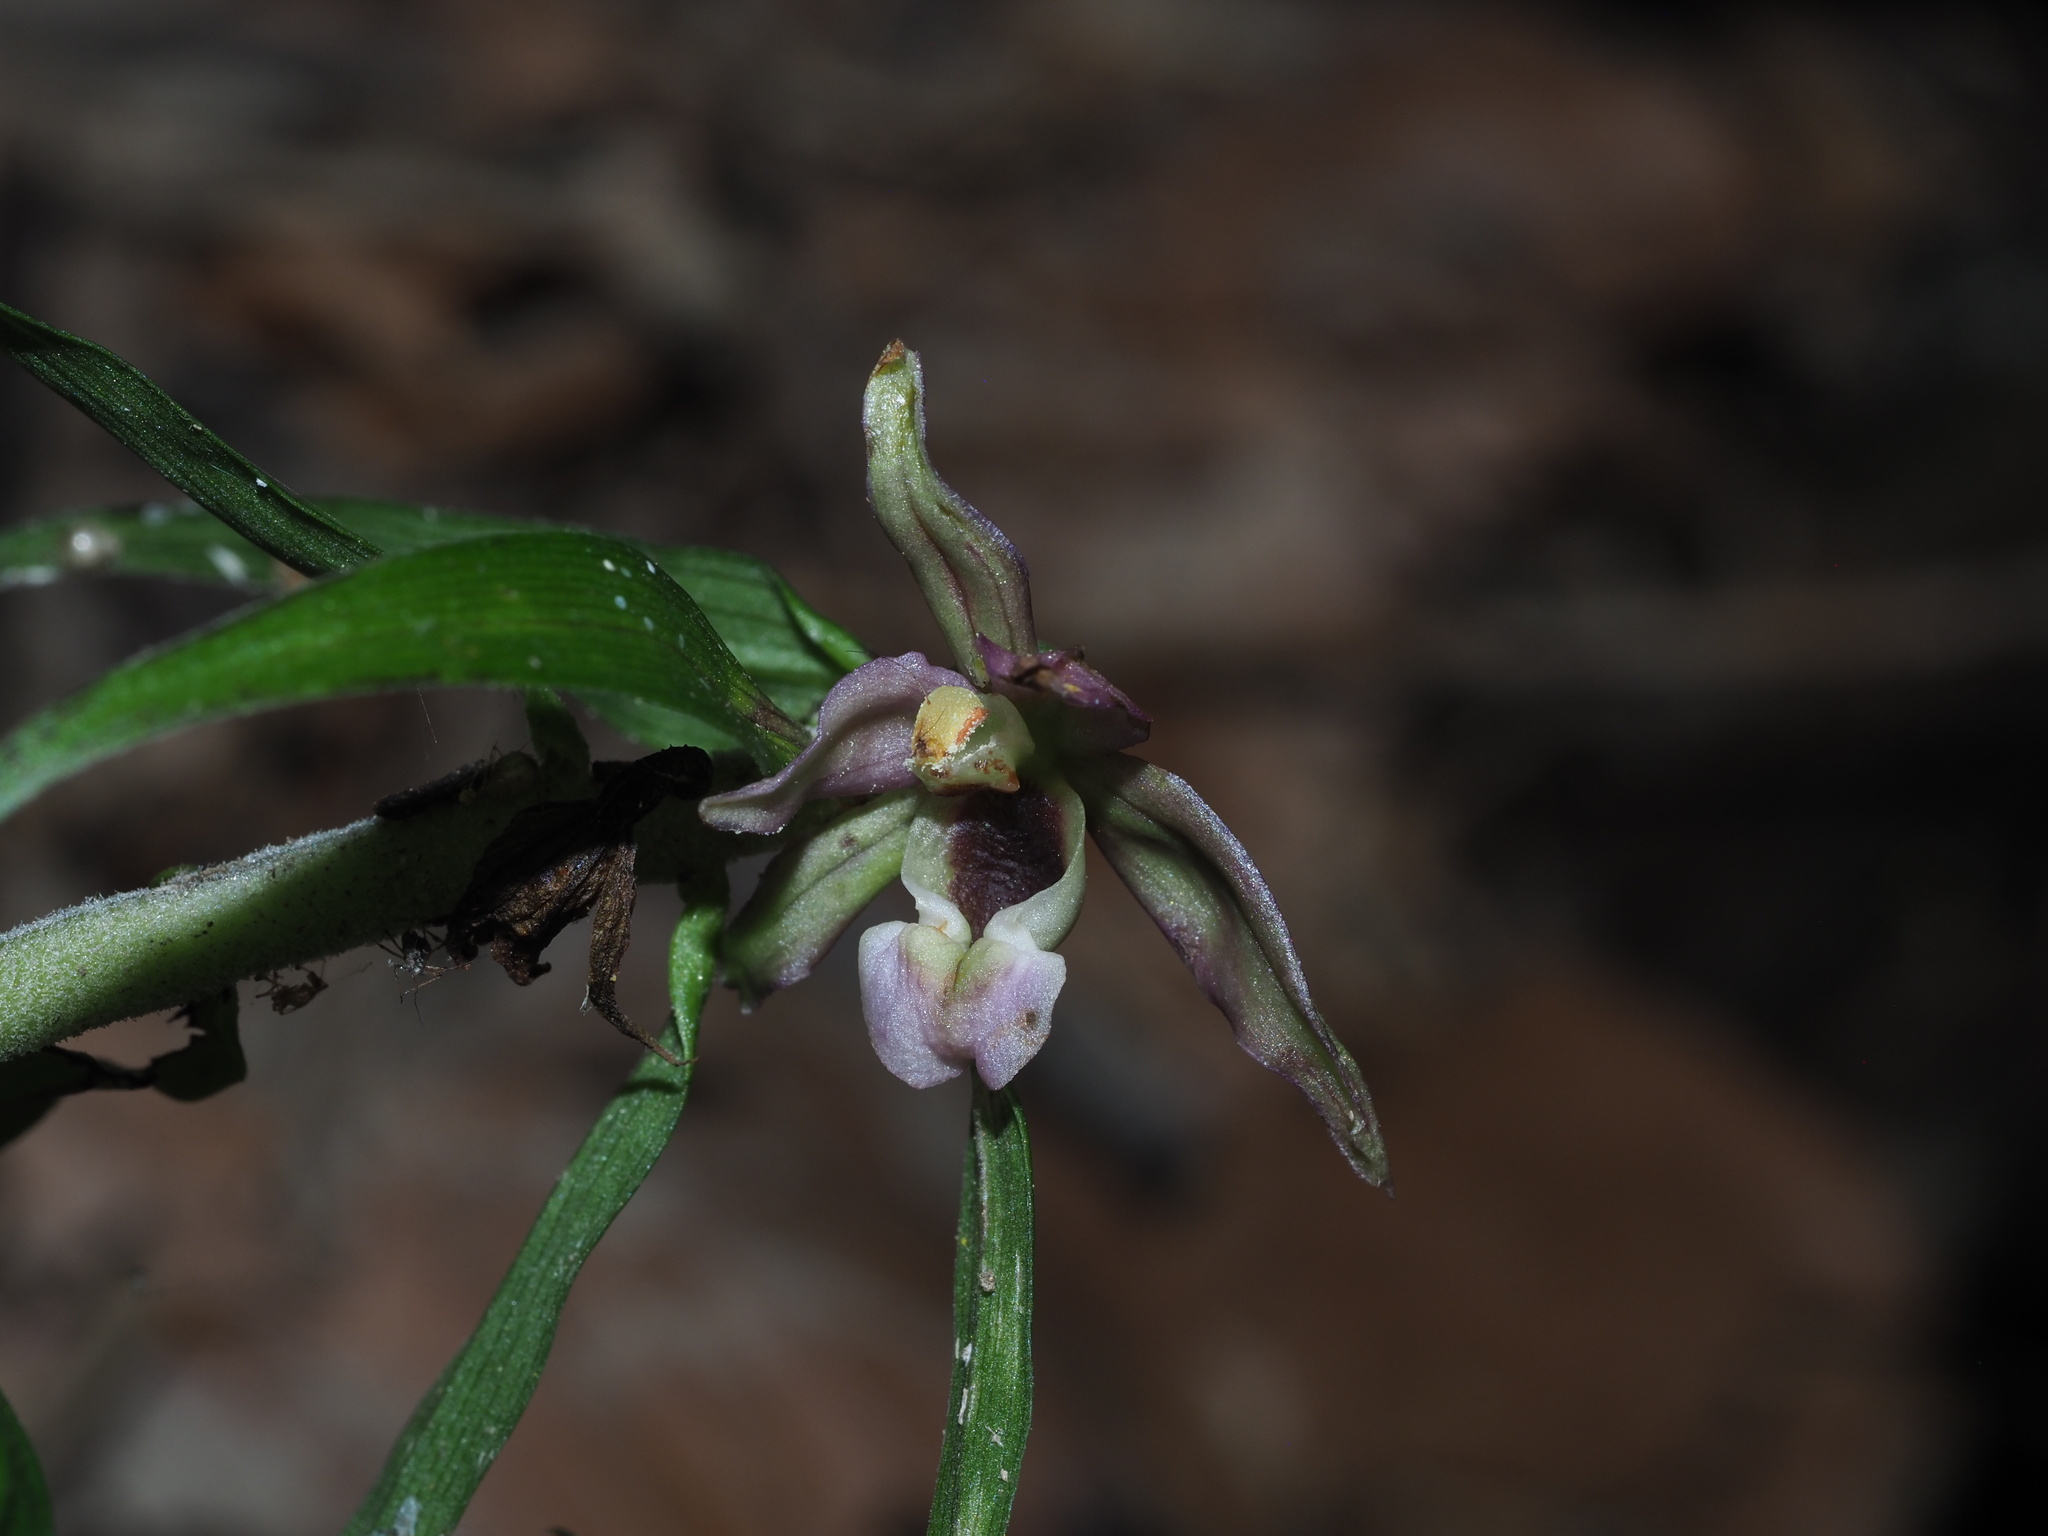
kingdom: Plantae
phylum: Tracheophyta
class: Liliopsida
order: Asparagales
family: Orchidaceae
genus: Epipactis
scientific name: Epipactis helleborine
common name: Broad-leaved helleborine
